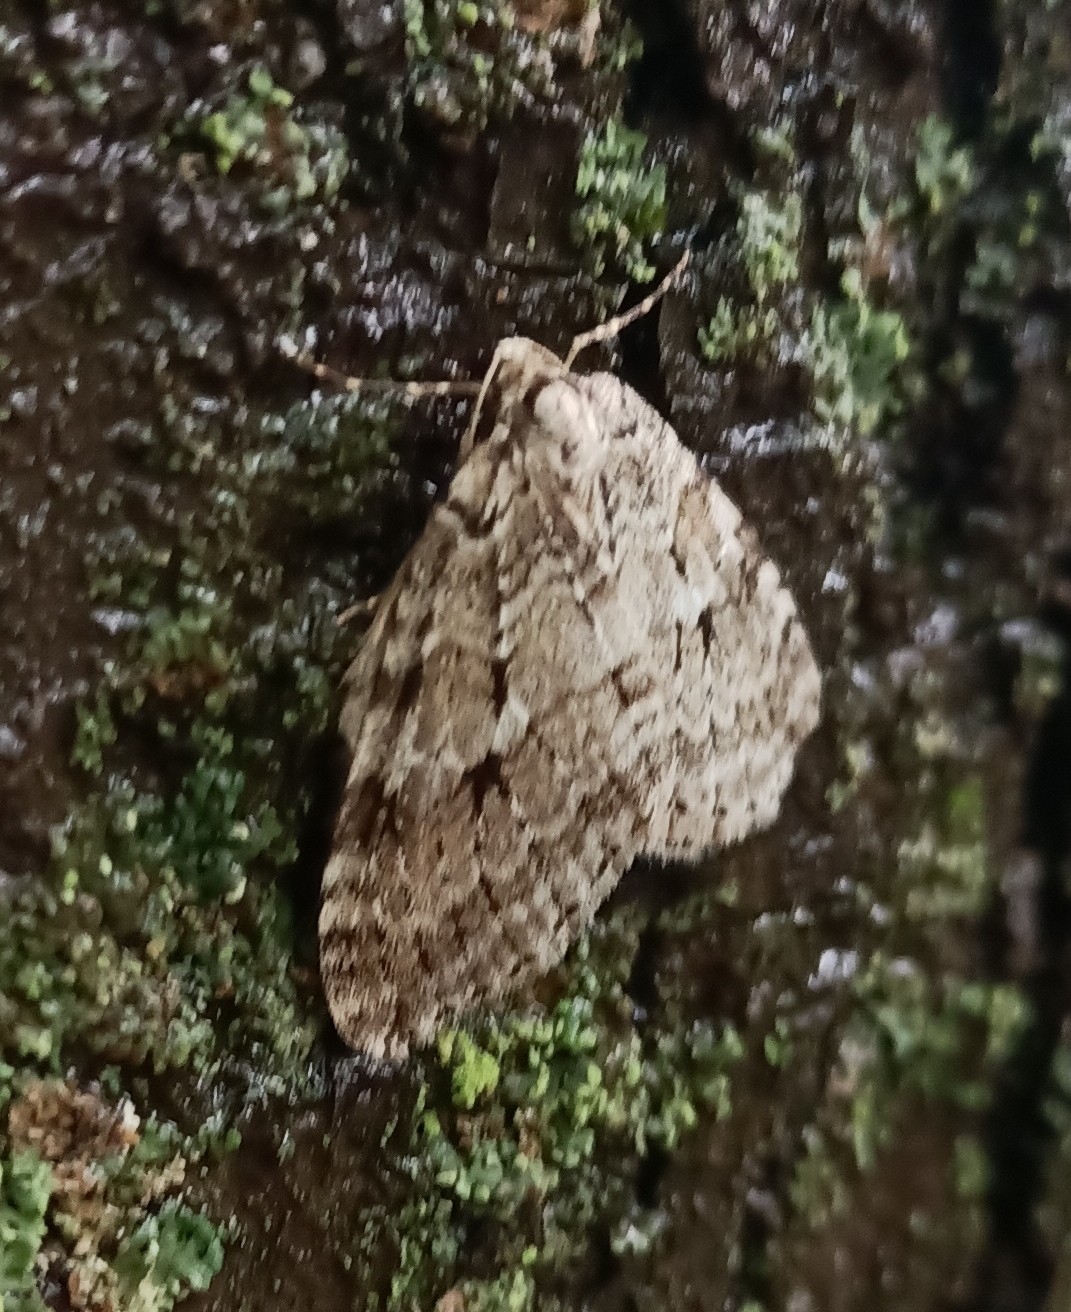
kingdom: Animalia
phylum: Arthropoda
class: Insecta
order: Lepidoptera
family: Geometridae
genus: Epirrita
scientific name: Epirrita autumnata
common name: Autumnal moth
